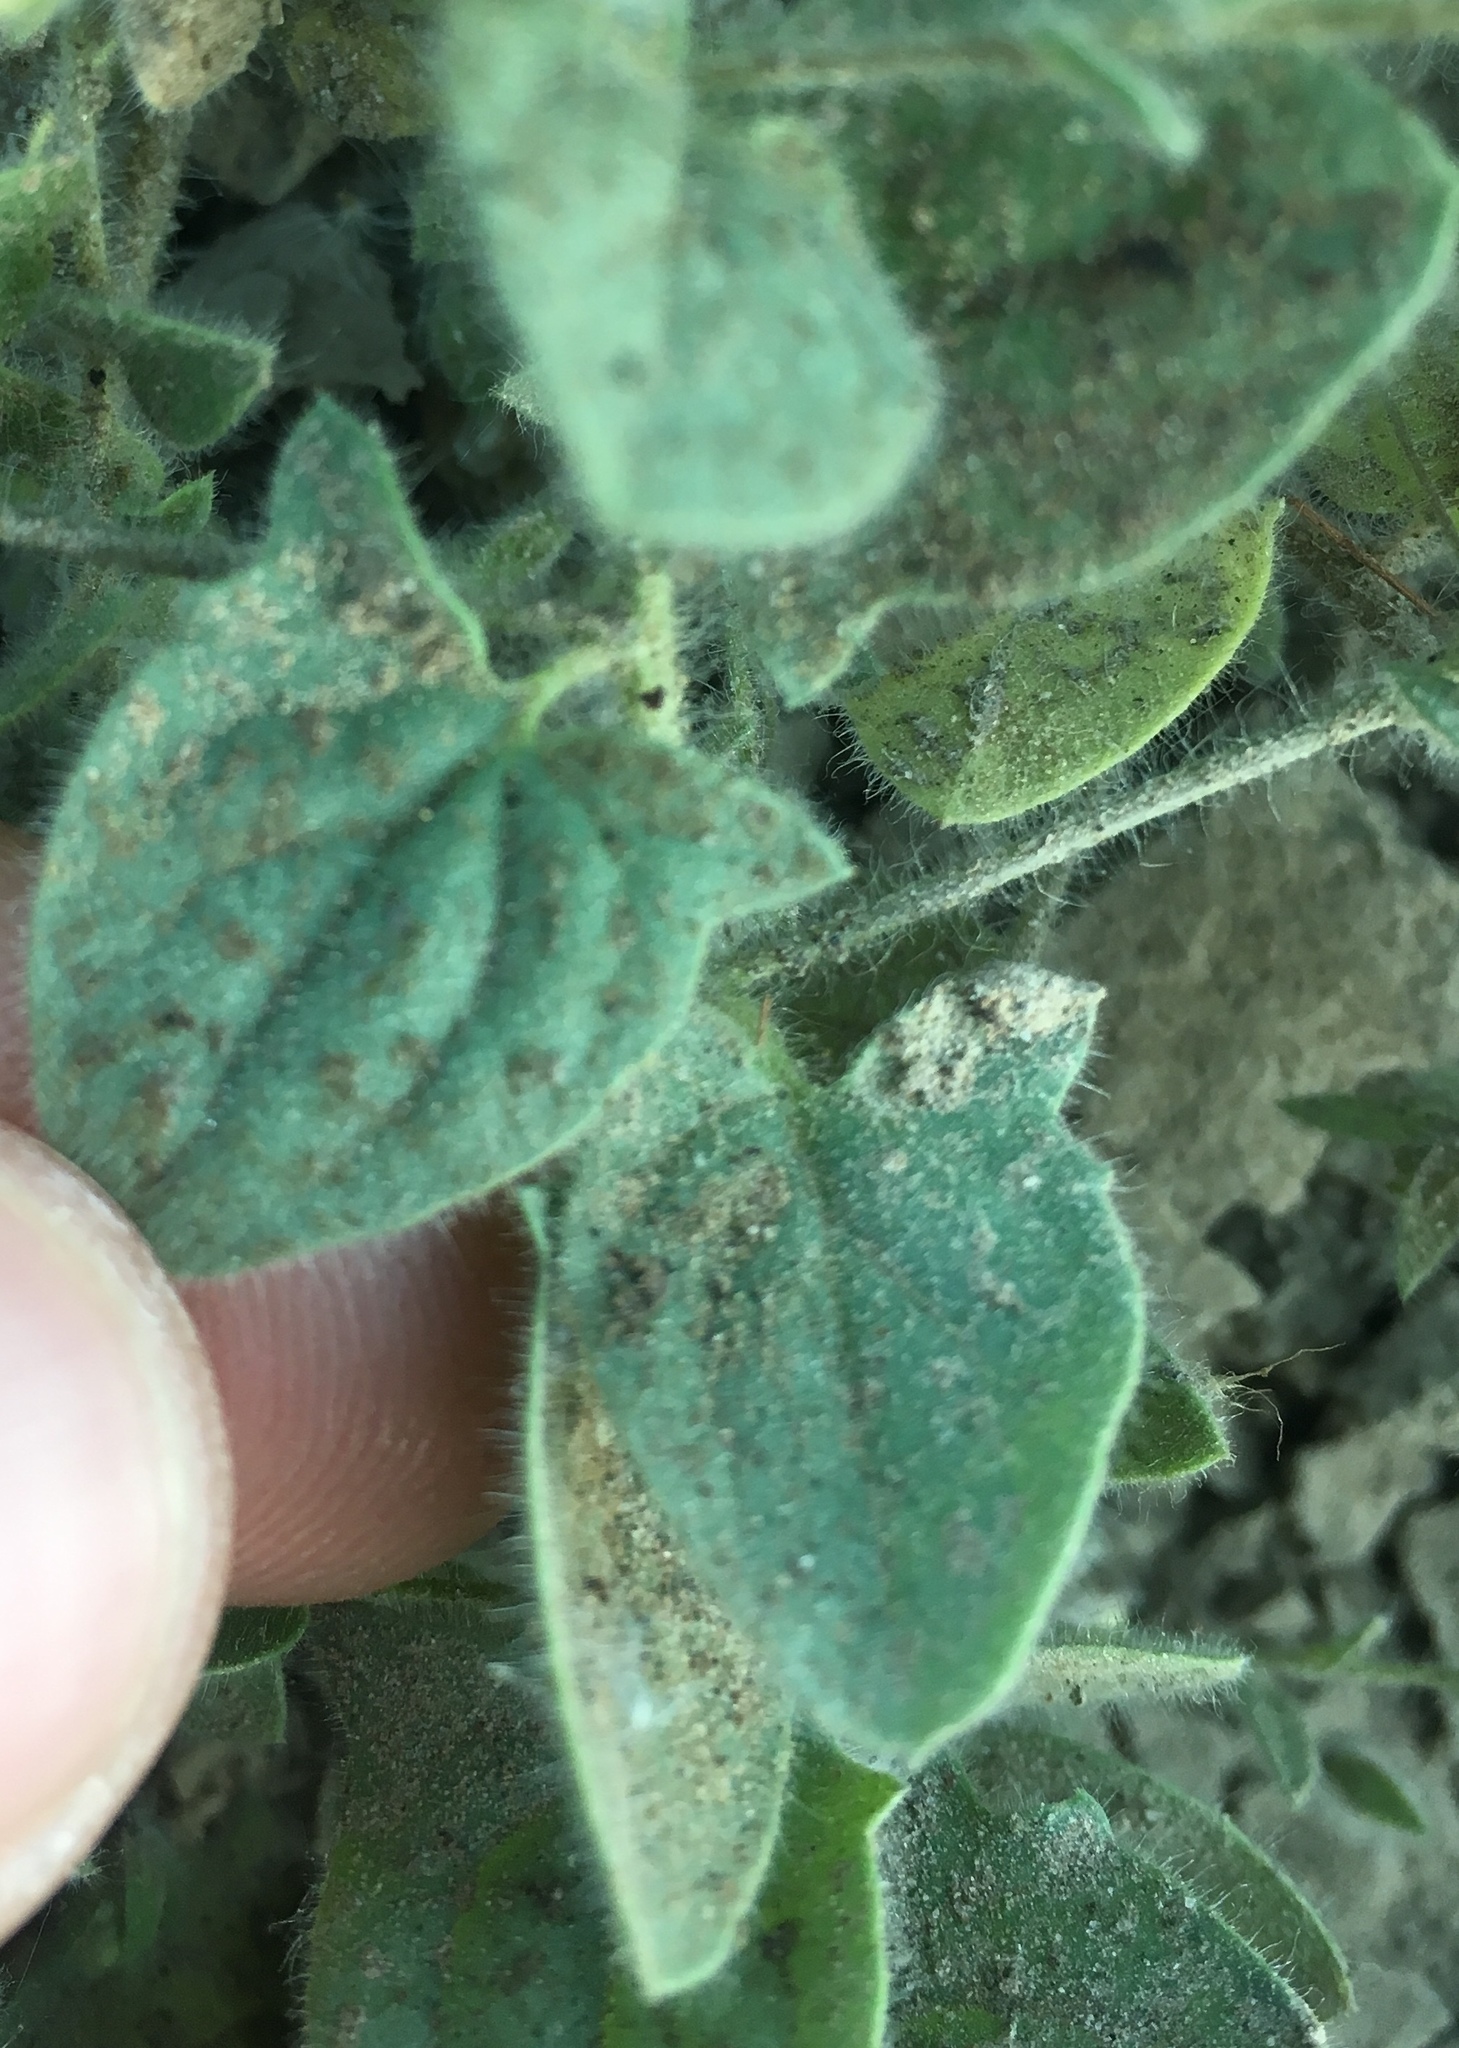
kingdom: Plantae
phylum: Tracheophyta
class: Magnoliopsida
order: Lamiales
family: Plantaginaceae
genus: Kickxia
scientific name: Kickxia elatine
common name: Sharp-leaved fluellen
